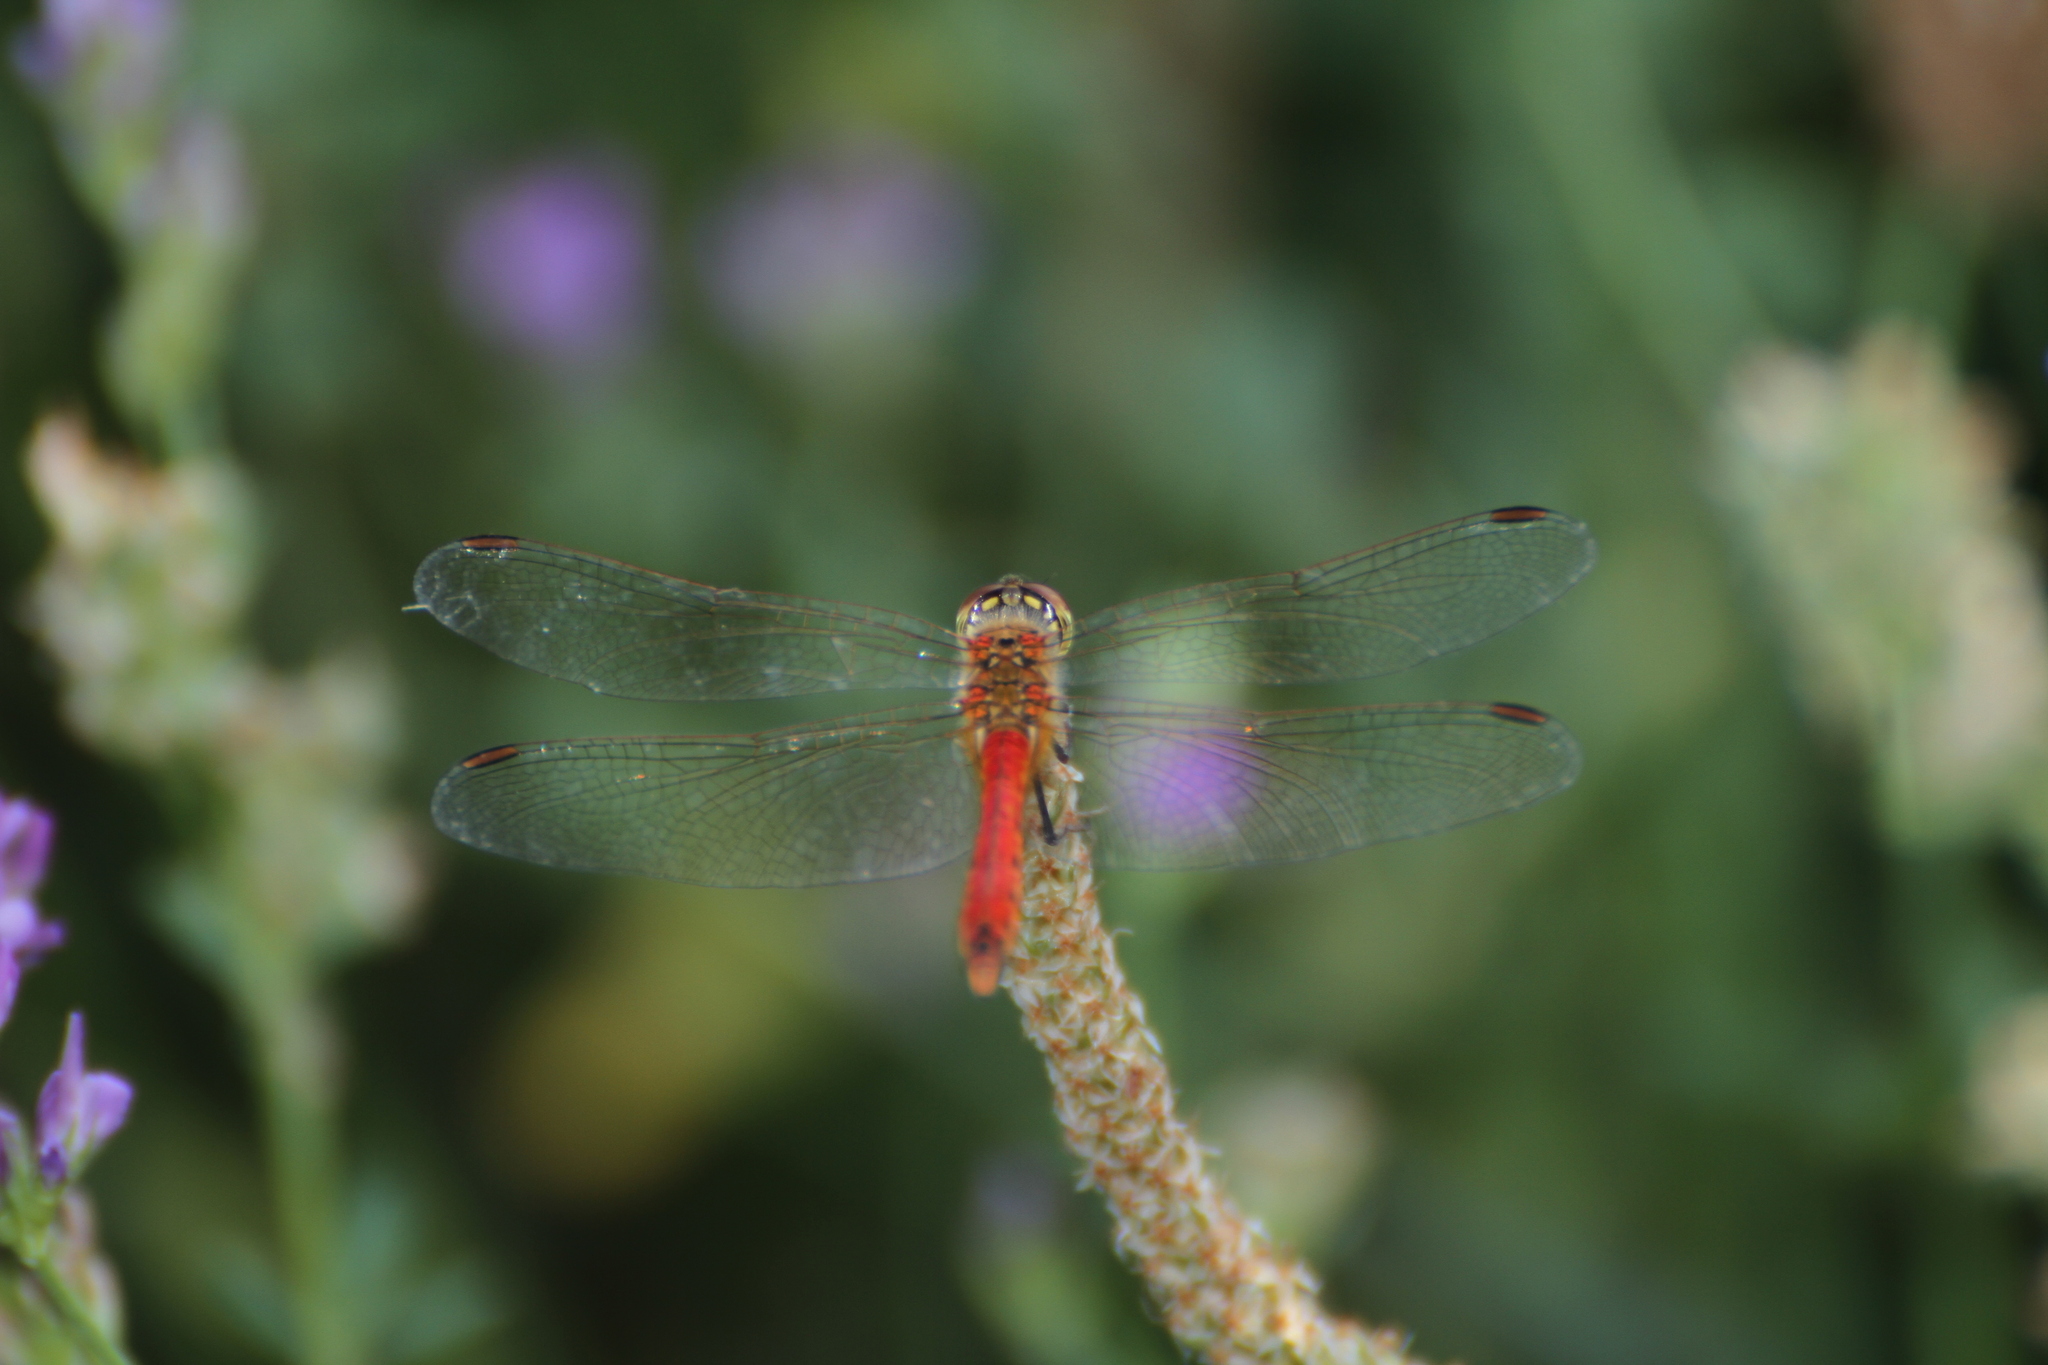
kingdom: Animalia
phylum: Arthropoda
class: Insecta
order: Odonata
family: Libellulidae
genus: Sympetrum
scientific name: Sympetrum depressiusculum
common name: Spotted darter
